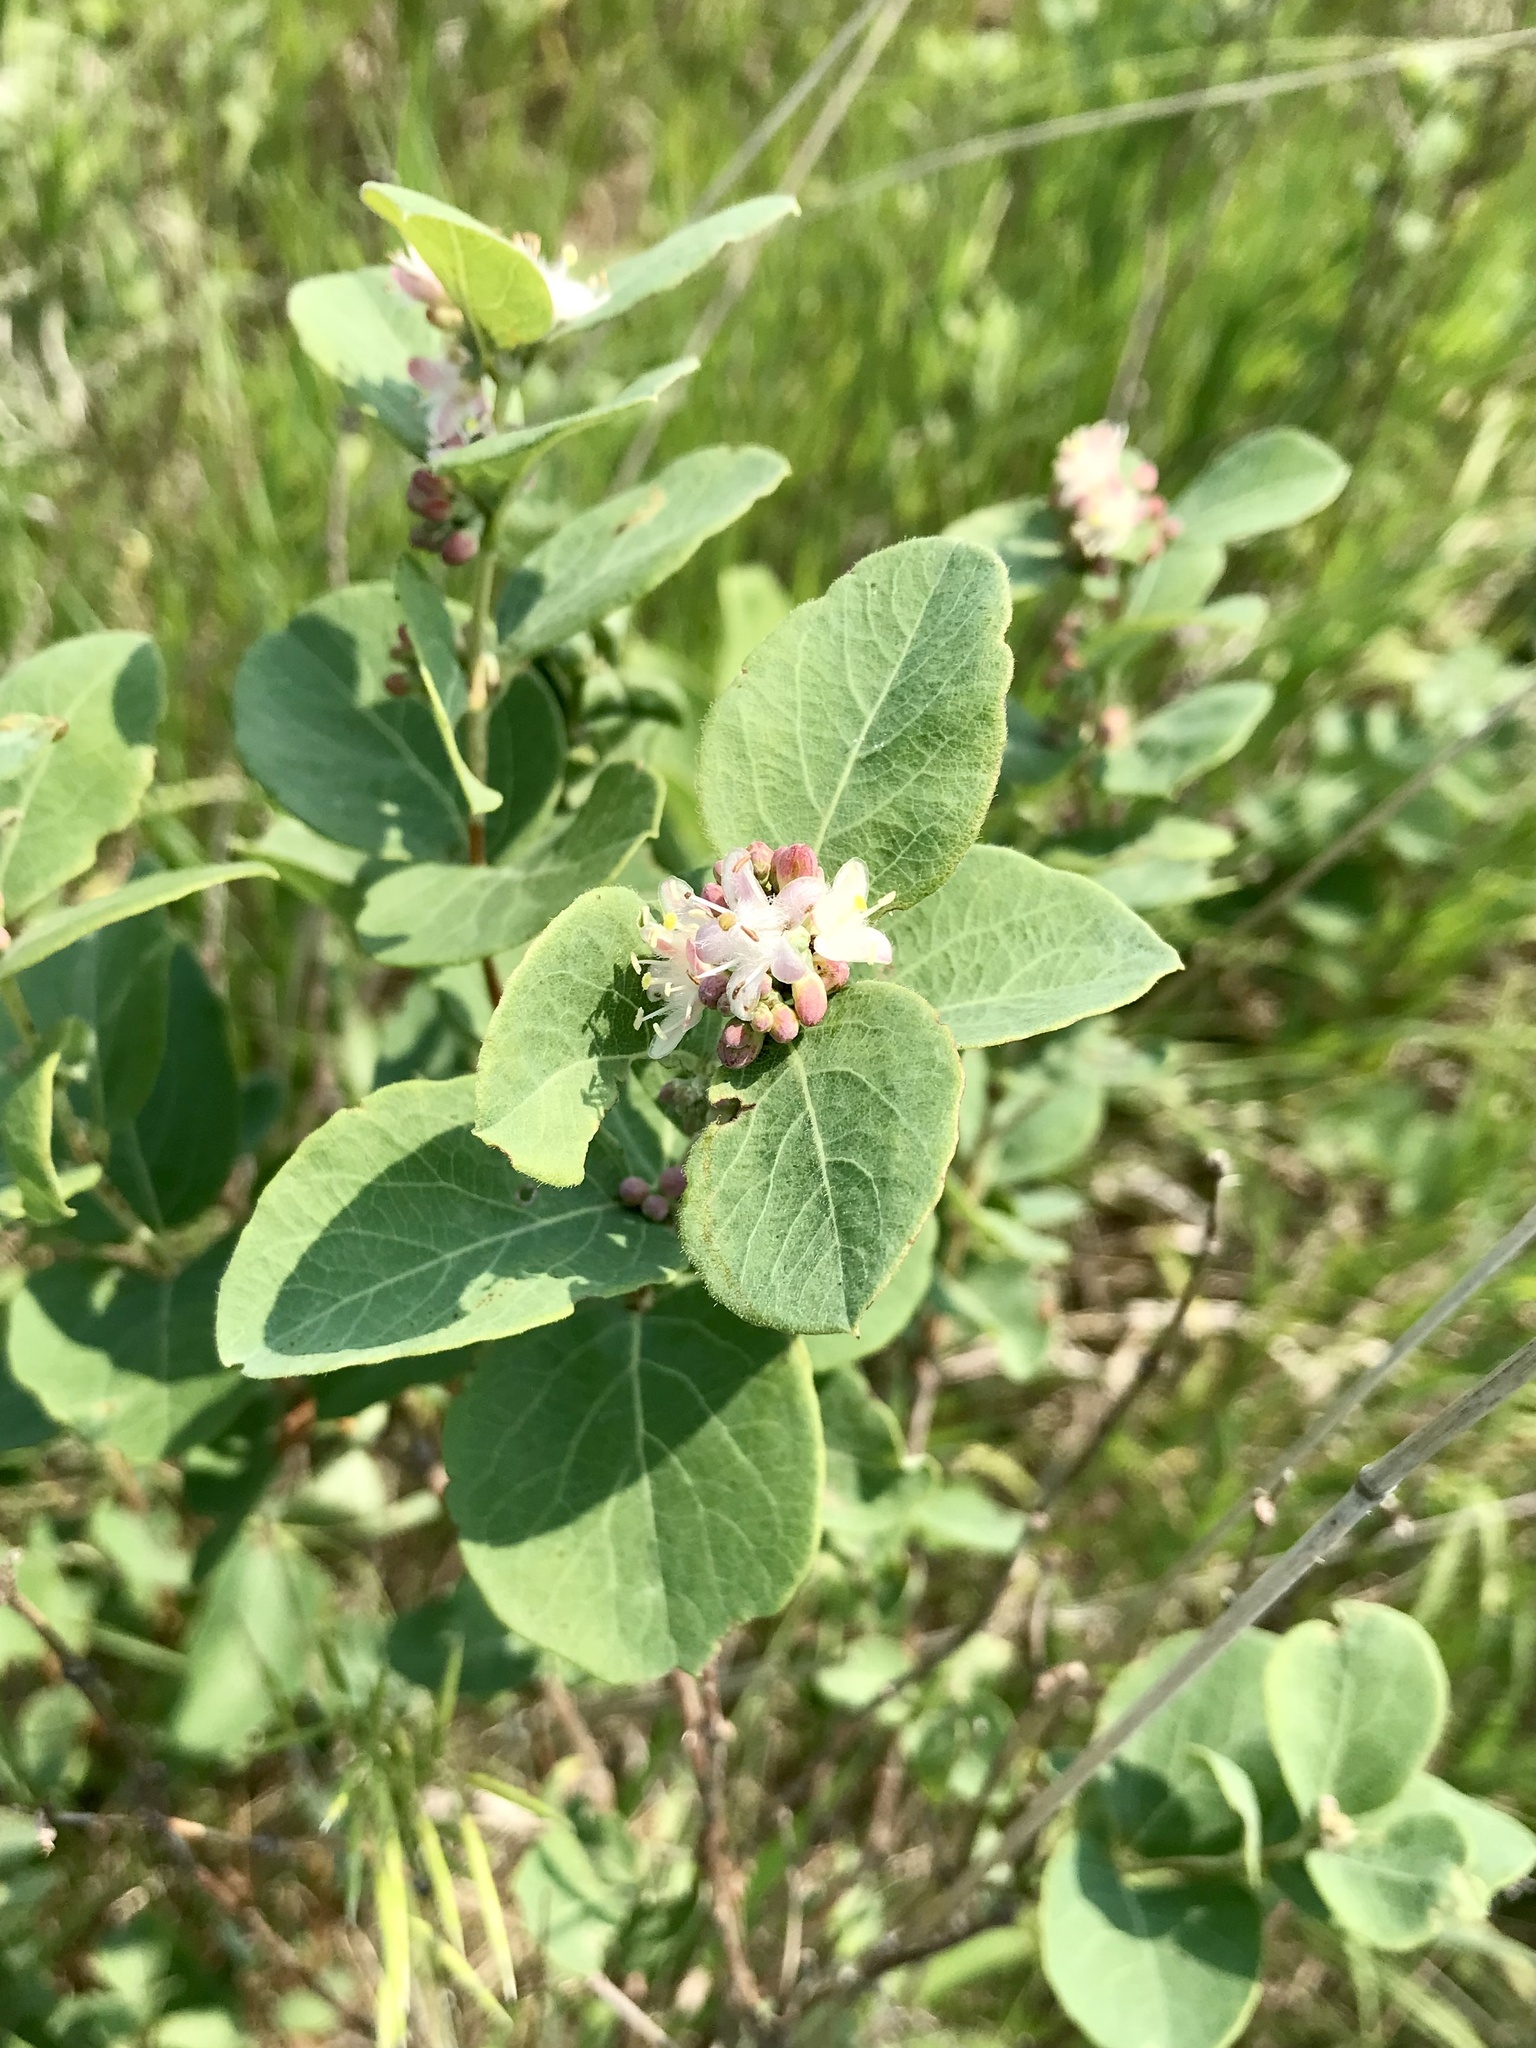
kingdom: Plantae
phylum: Tracheophyta
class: Magnoliopsida
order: Dipsacales
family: Caprifoliaceae
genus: Symphoricarpos
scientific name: Symphoricarpos occidentalis
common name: Wolfberry
